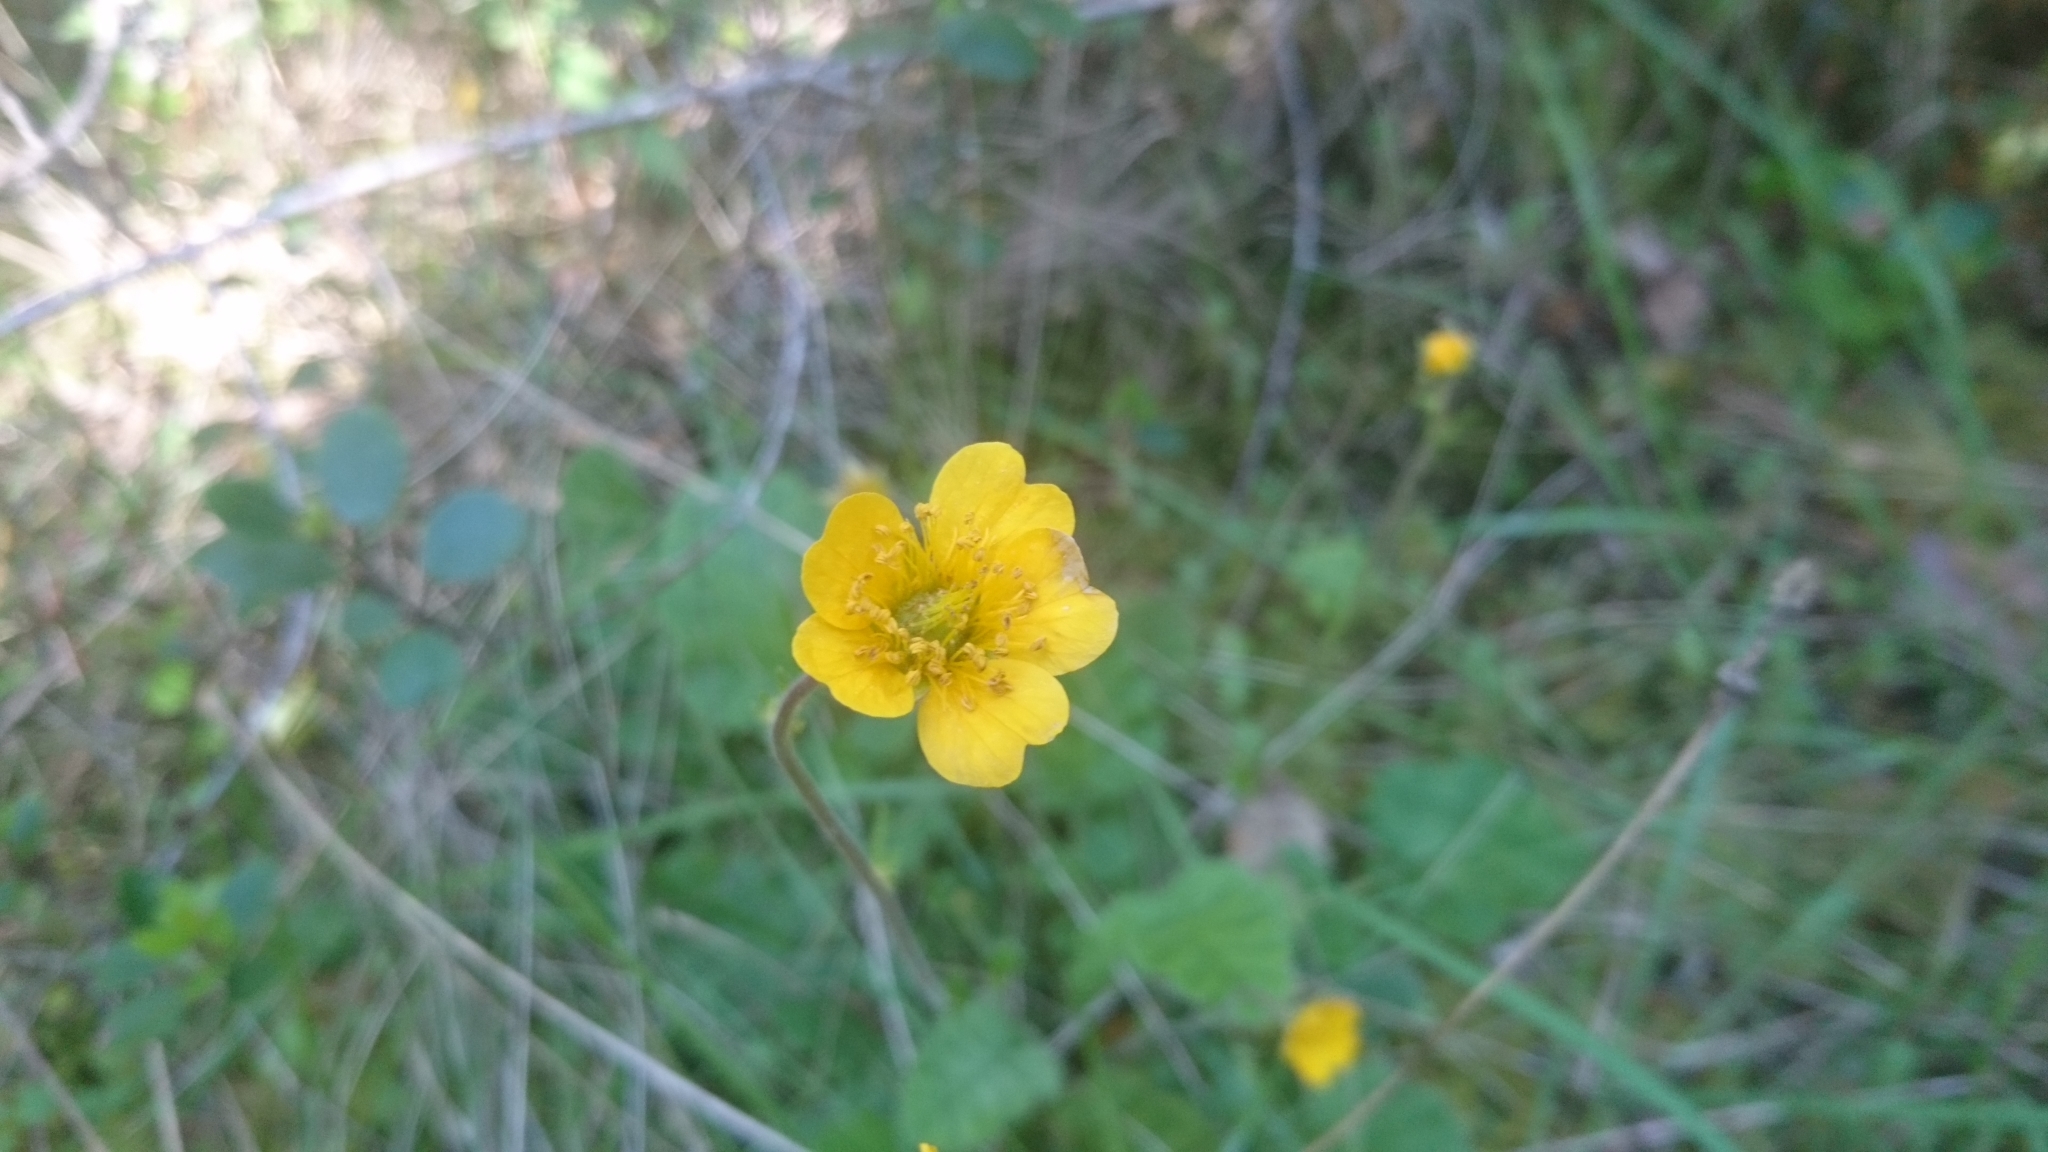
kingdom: Plantae
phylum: Tracheophyta
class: Magnoliopsida
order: Rosales
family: Rosaceae
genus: Geum
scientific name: Geum sylvaticum
